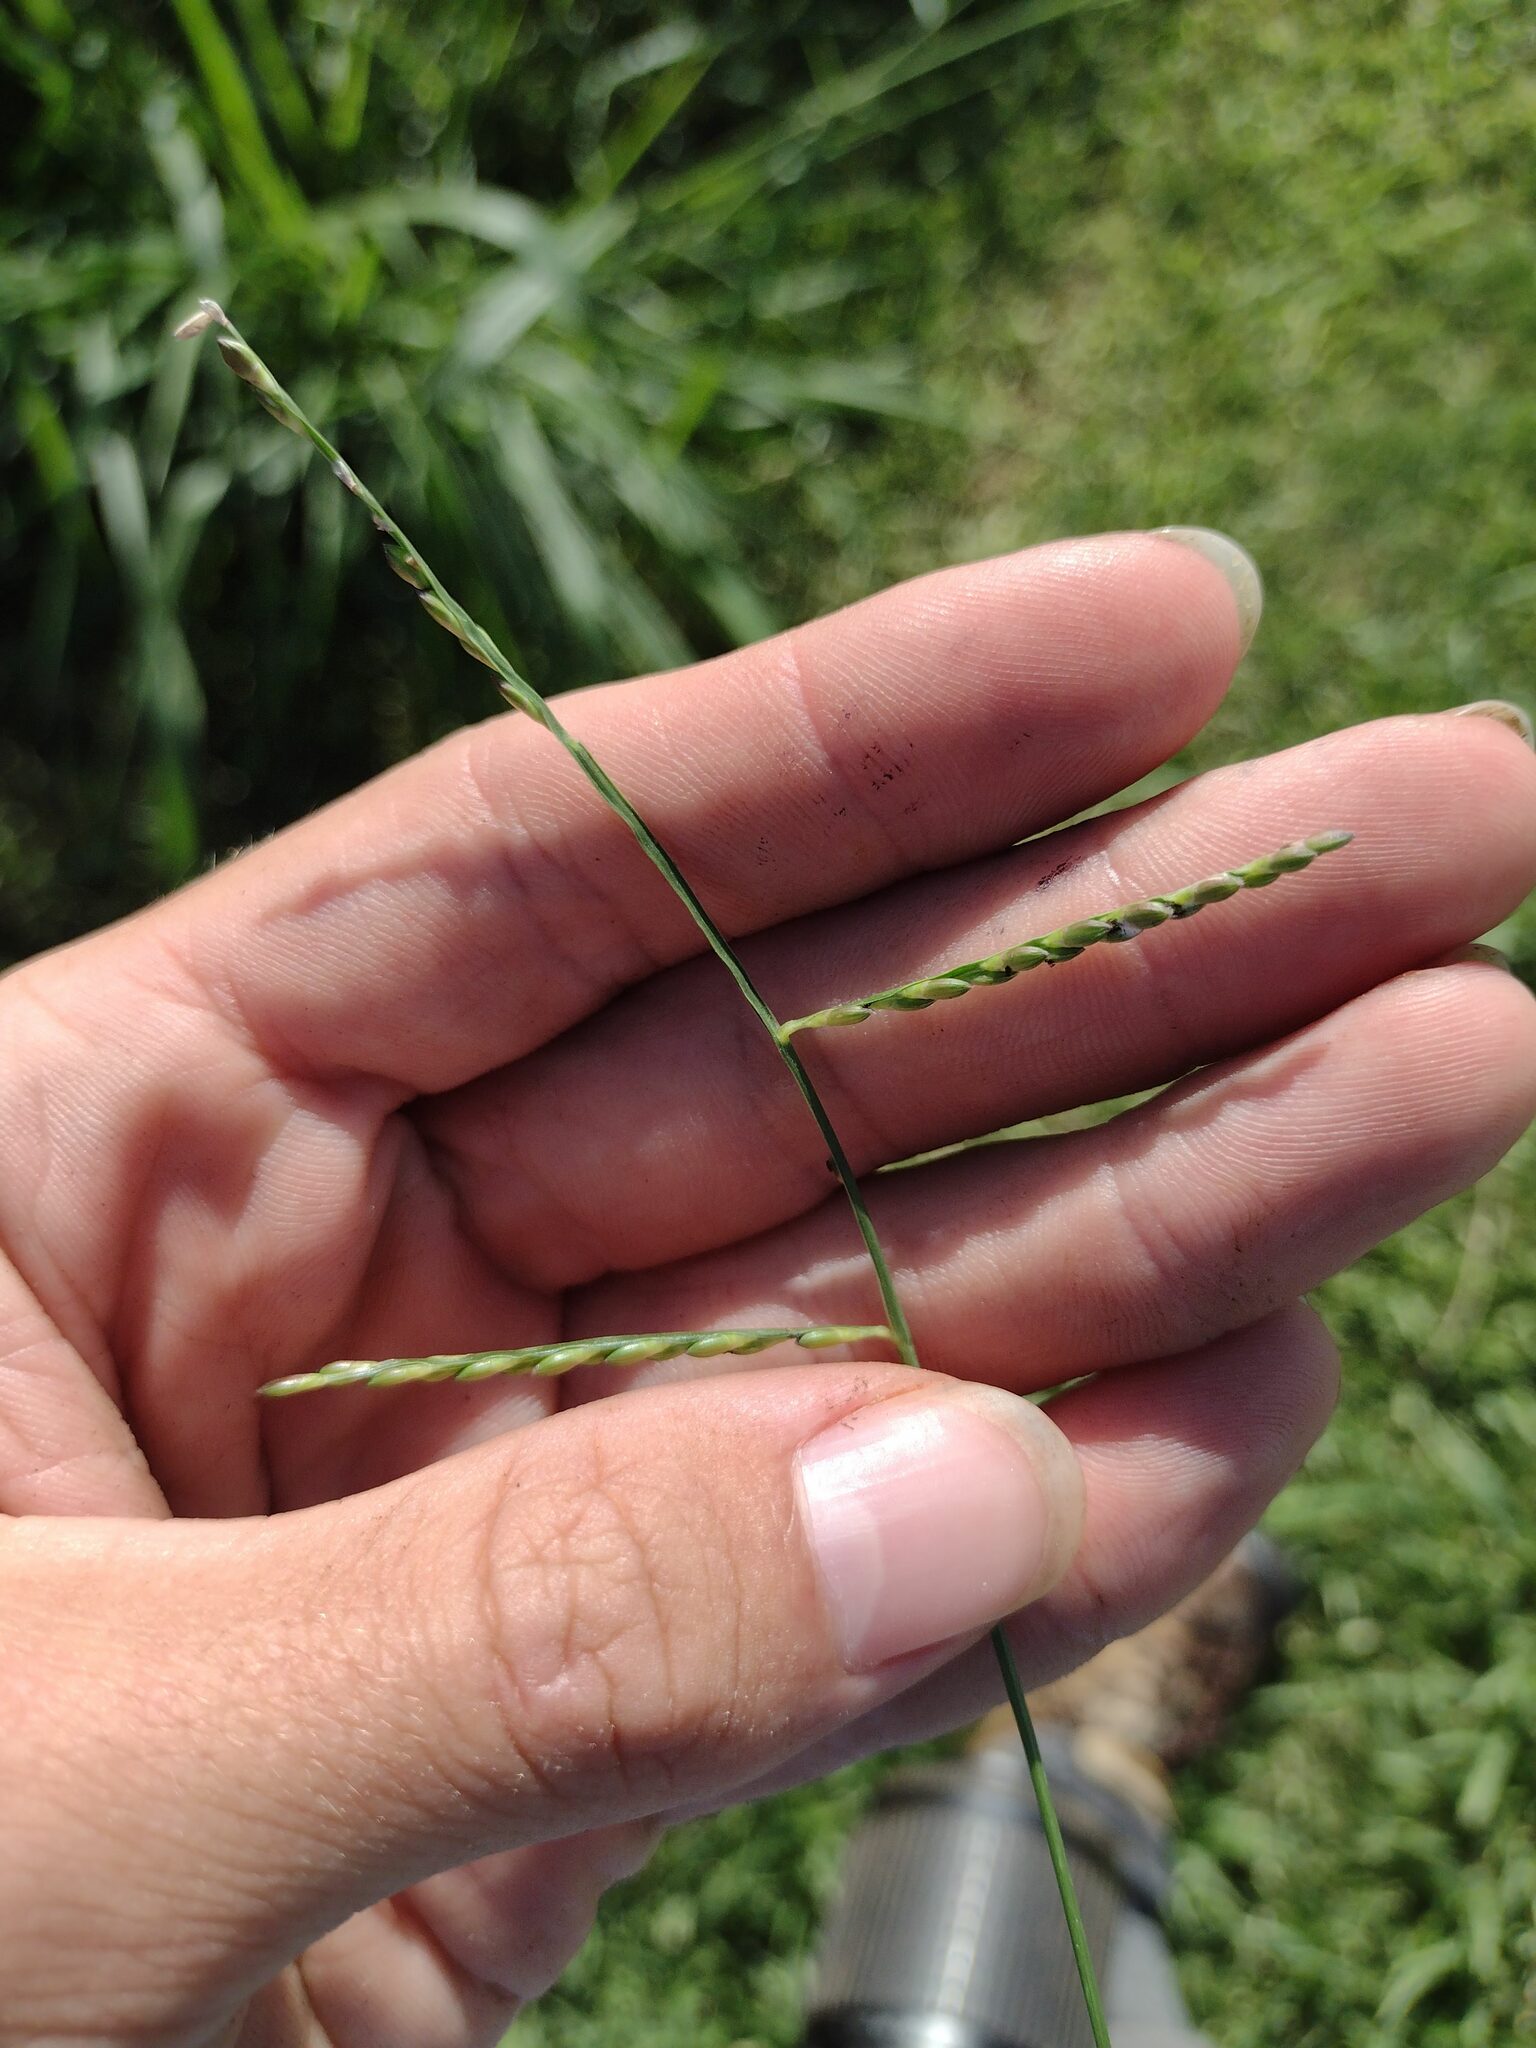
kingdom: Plantae
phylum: Tracheophyta
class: Liliopsida
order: Poales
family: Poaceae
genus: Urochloa
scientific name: Urochloa distachyos
